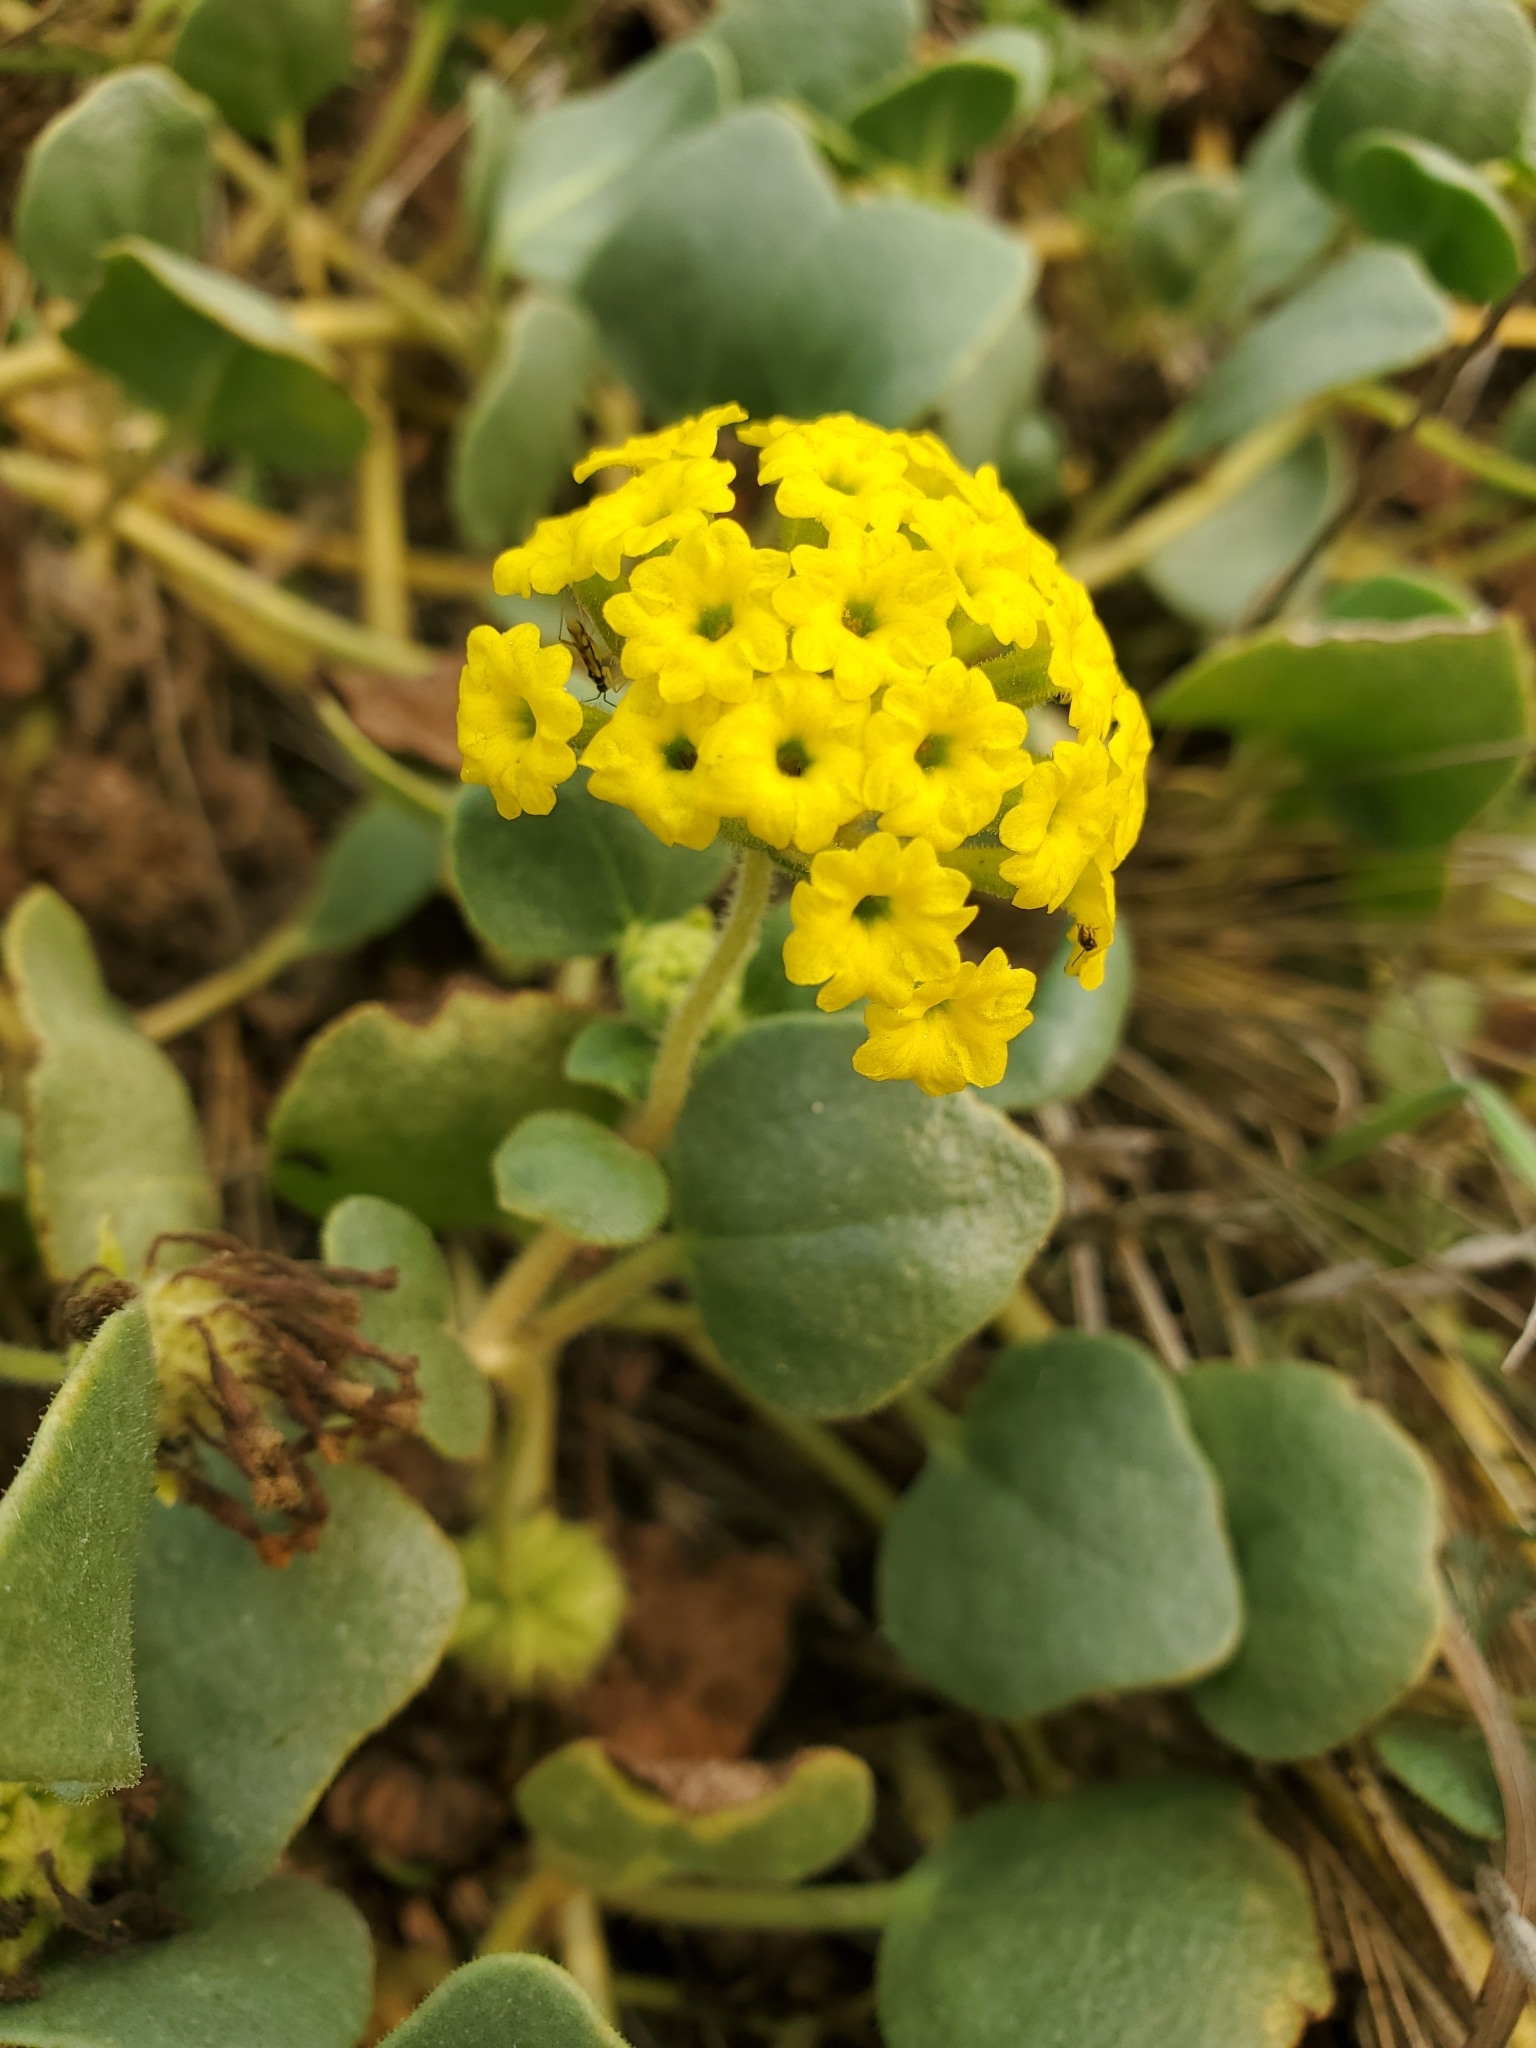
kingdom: Plantae
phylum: Tracheophyta
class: Magnoliopsida
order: Caryophyllales
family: Nyctaginaceae
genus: Abronia
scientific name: Abronia latifolia
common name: Yellow sand-verbena
